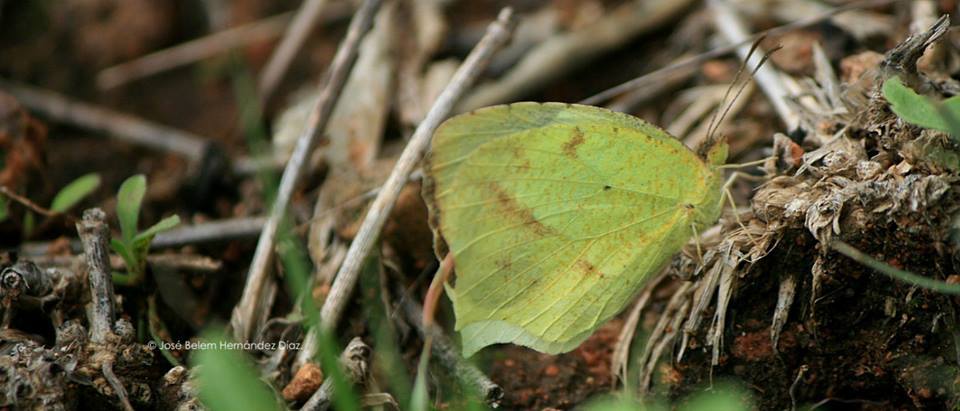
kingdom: Animalia
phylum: Arthropoda
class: Insecta
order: Lepidoptera
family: Pieridae
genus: Abaeis
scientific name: Abaeis mexicana
